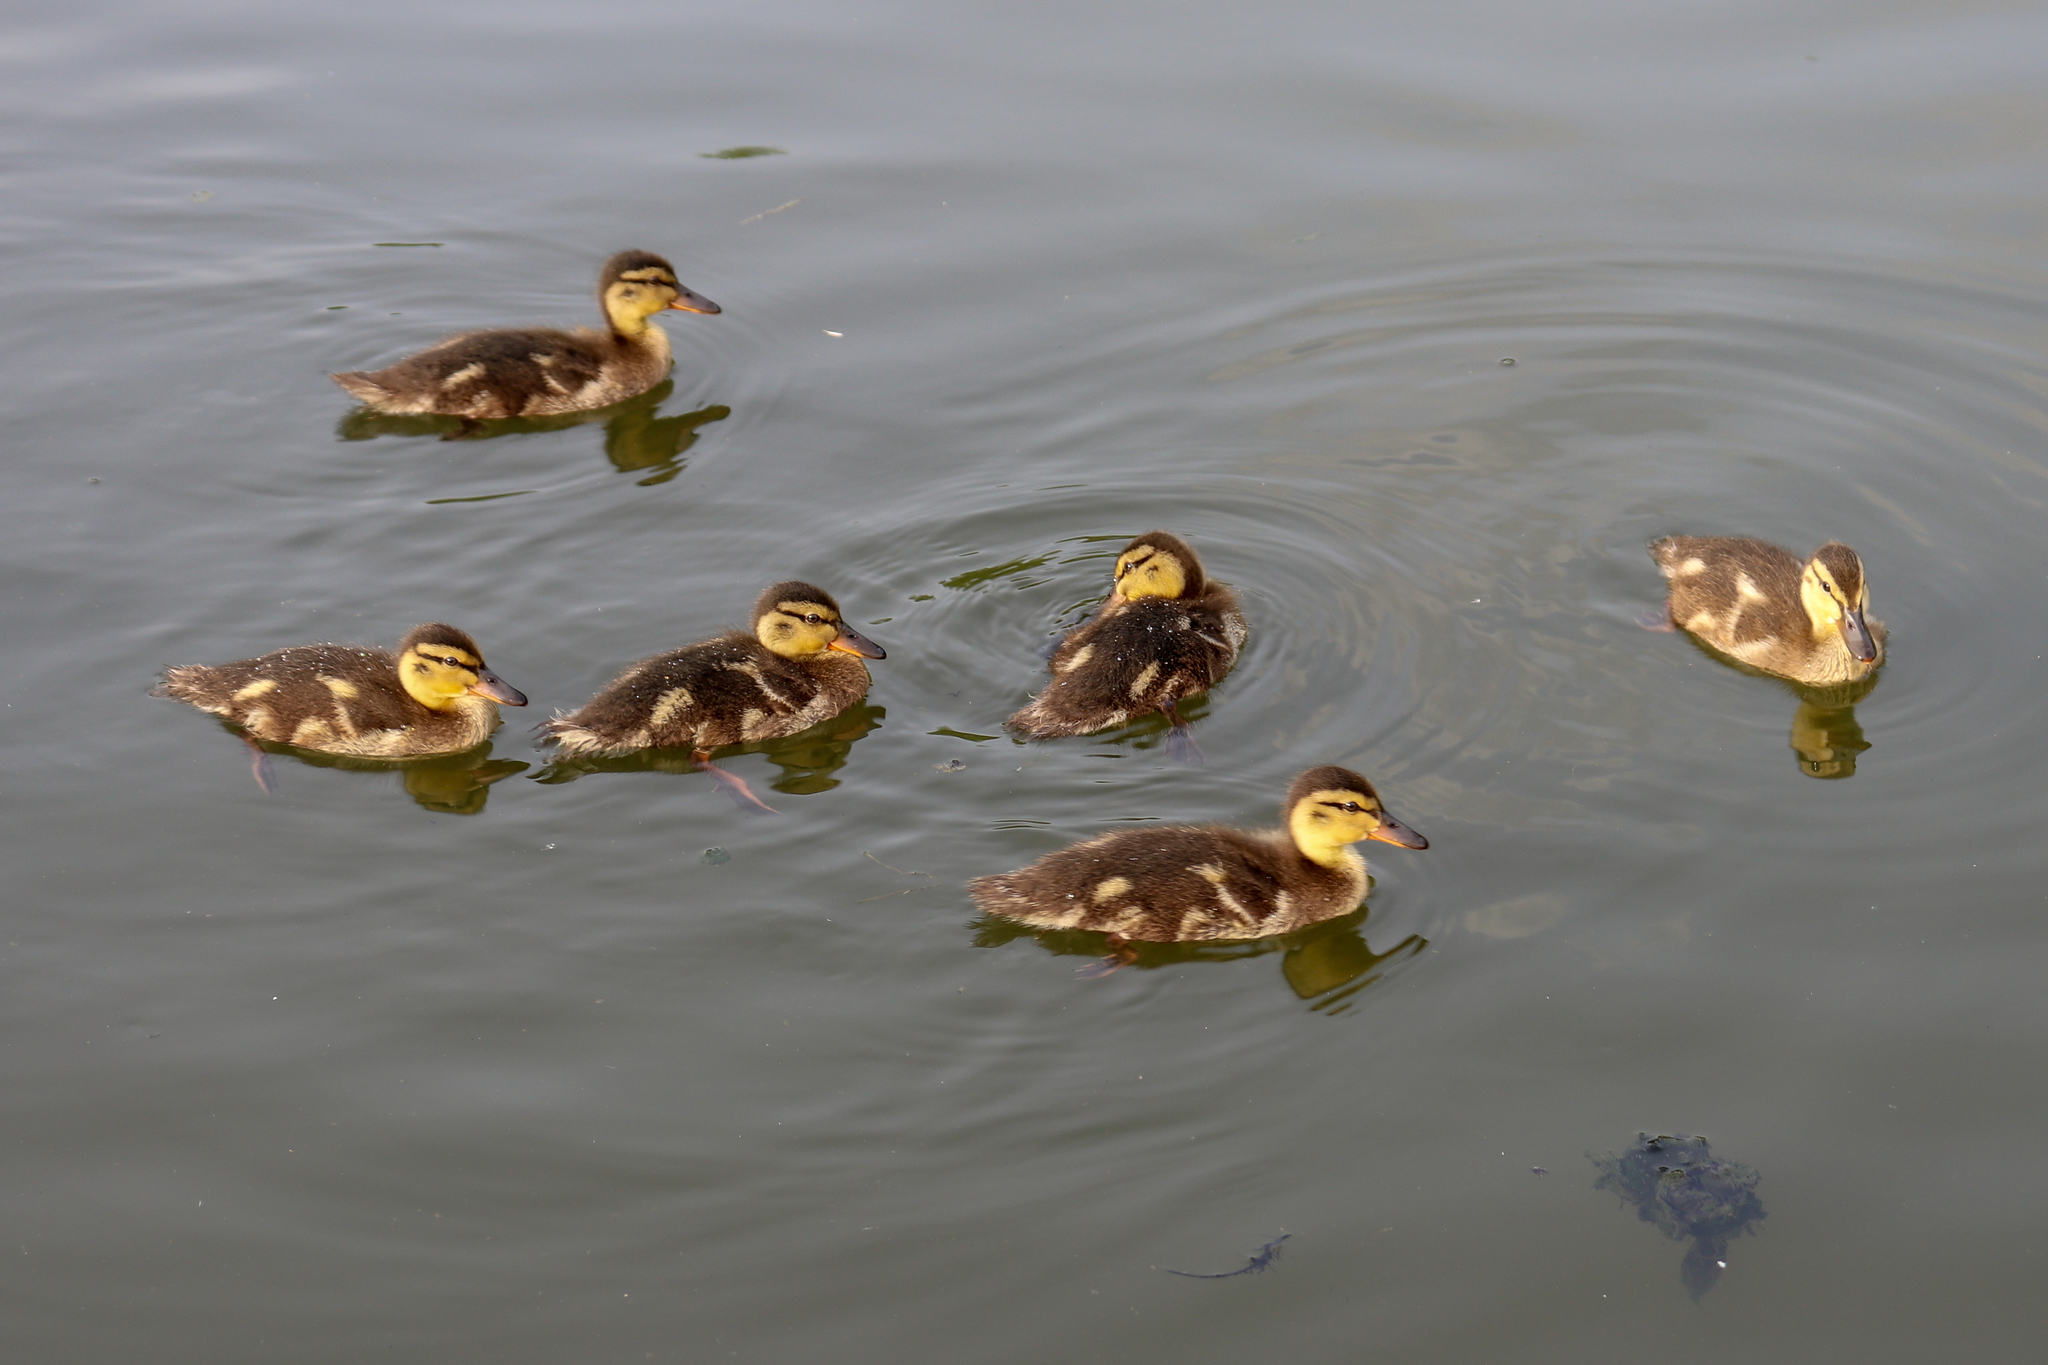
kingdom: Animalia
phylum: Chordata
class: Aves
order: Anseriformes
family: Anatidae
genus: Anas
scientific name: Anas platyrhynchos
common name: Mallard
